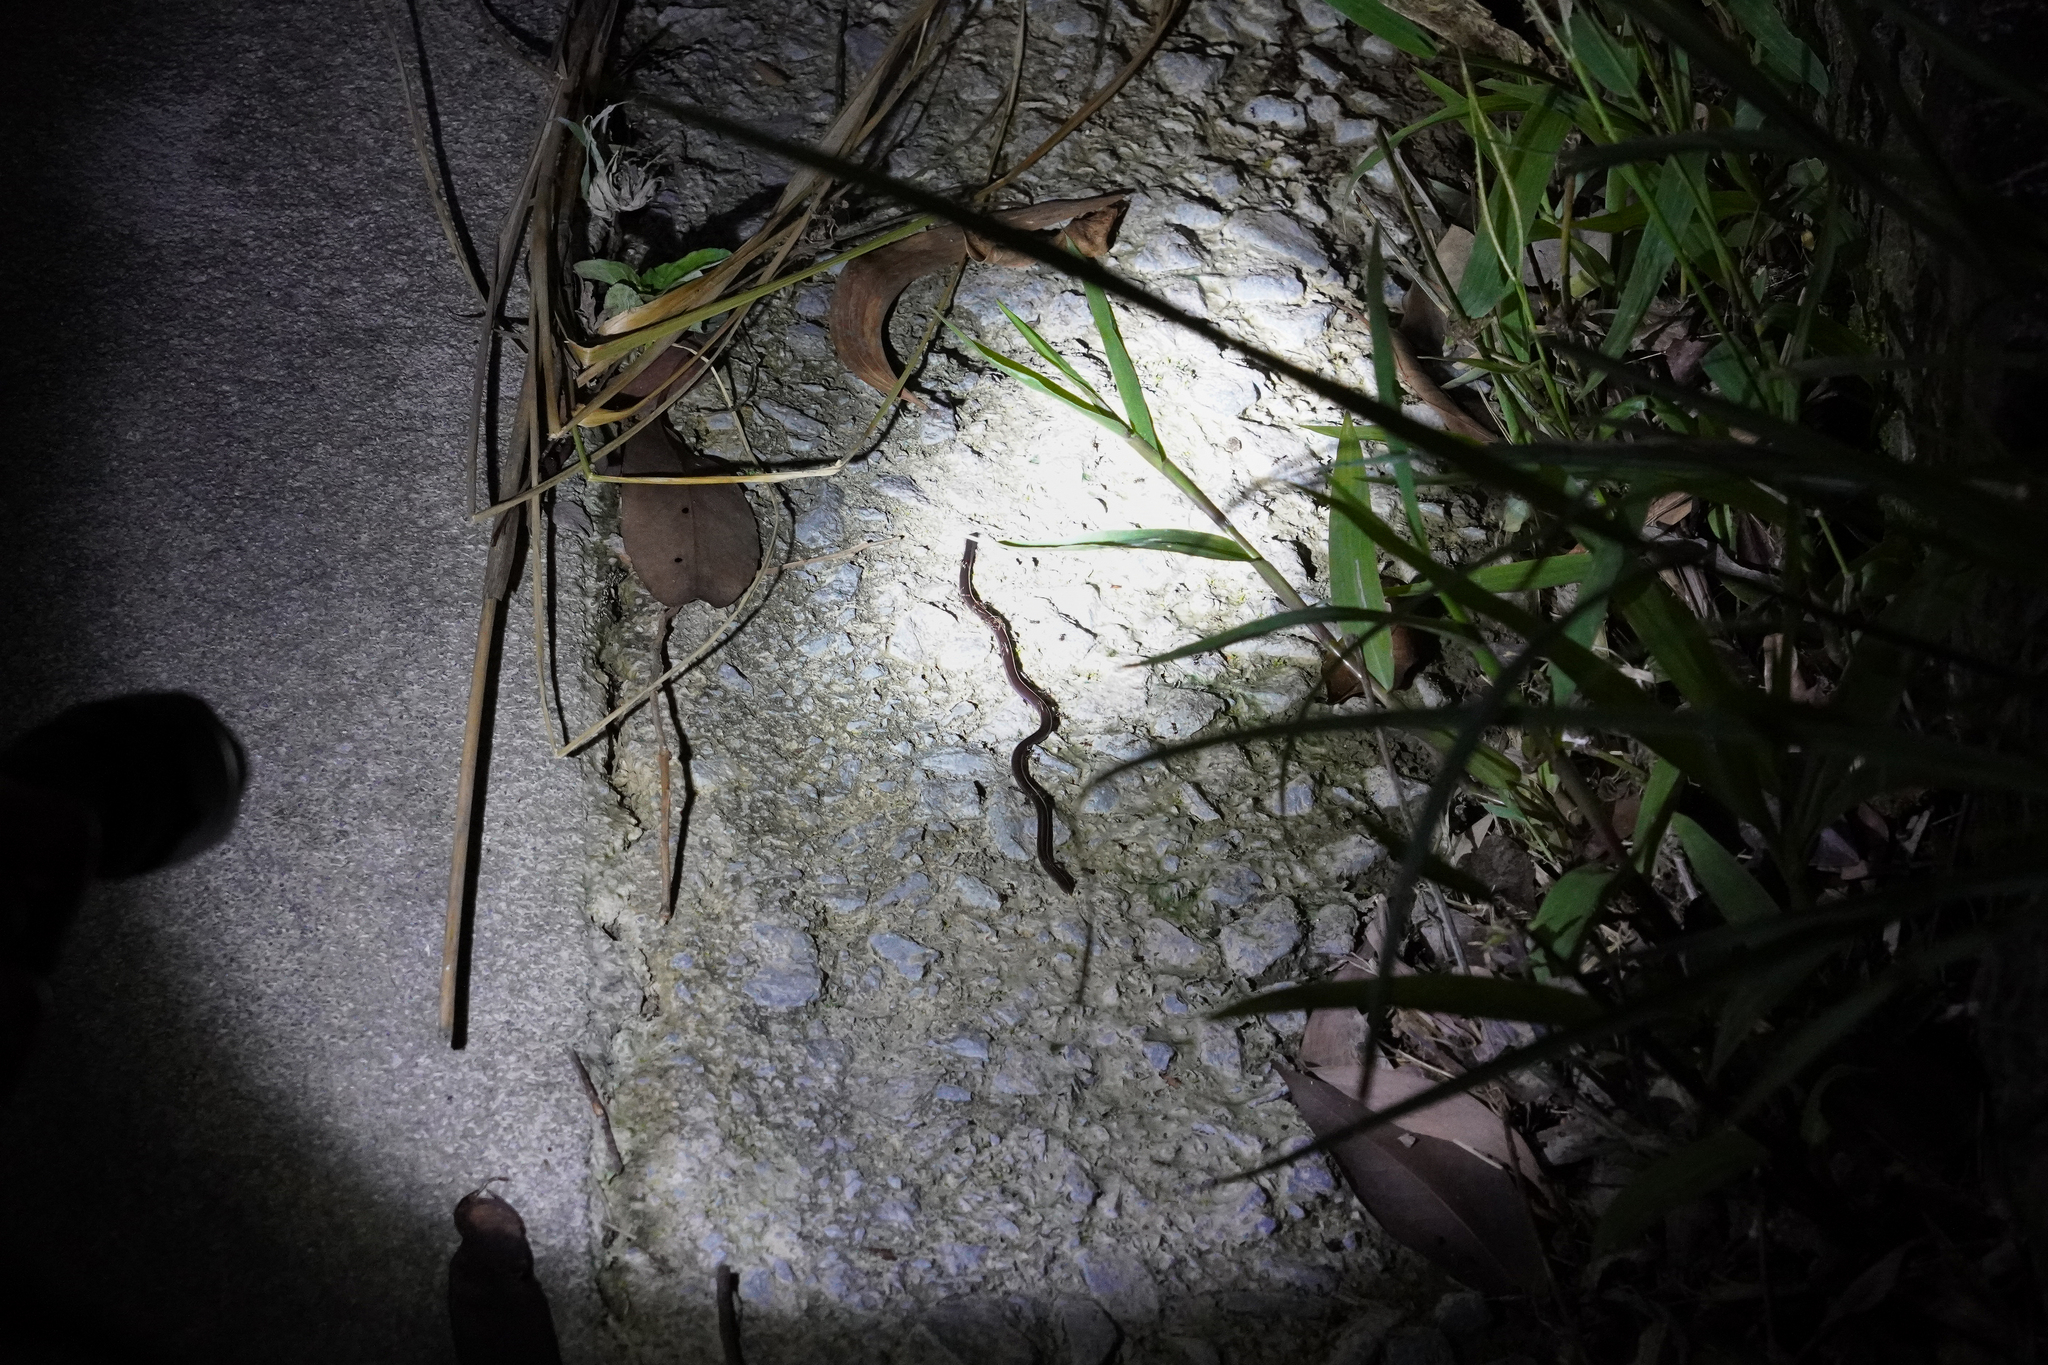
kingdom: Animalia
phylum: Chordata
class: Squamata
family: Typhlopidae
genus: Indotyphlops
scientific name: Indotyphlops braminus
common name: Brahminy blindsnake
